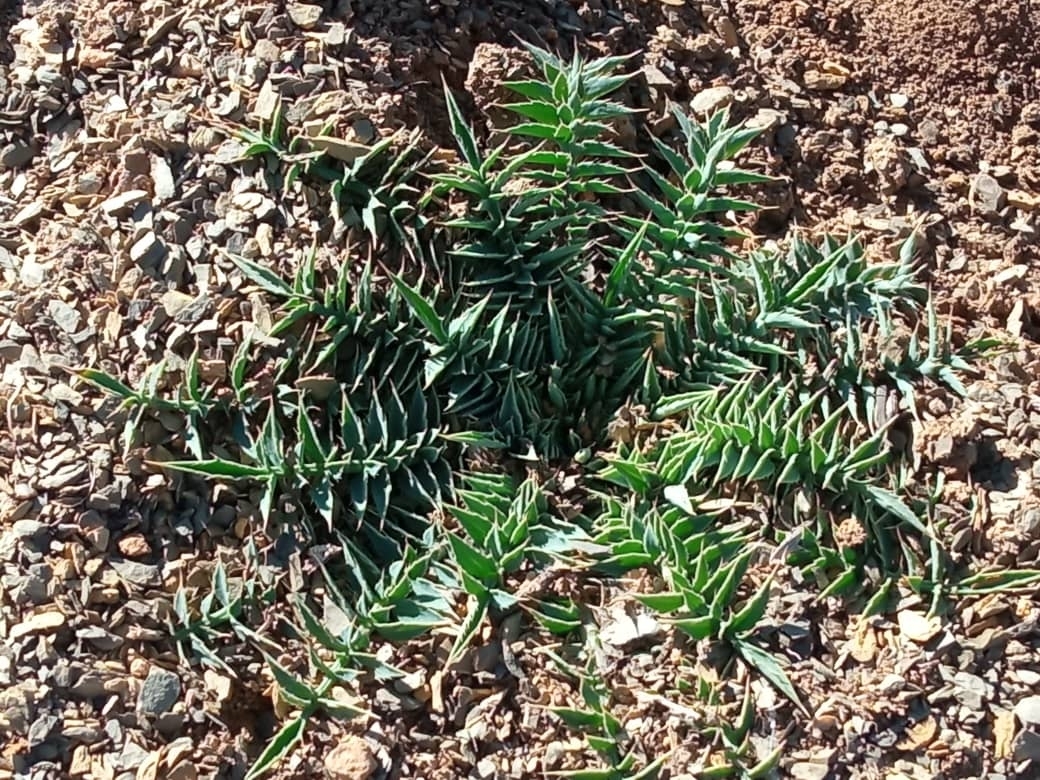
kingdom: Plantae
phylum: Tracheophyta
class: Magnoliopsida
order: Asterales
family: Asteraceae
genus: Carduncellus
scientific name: Carduncellus
